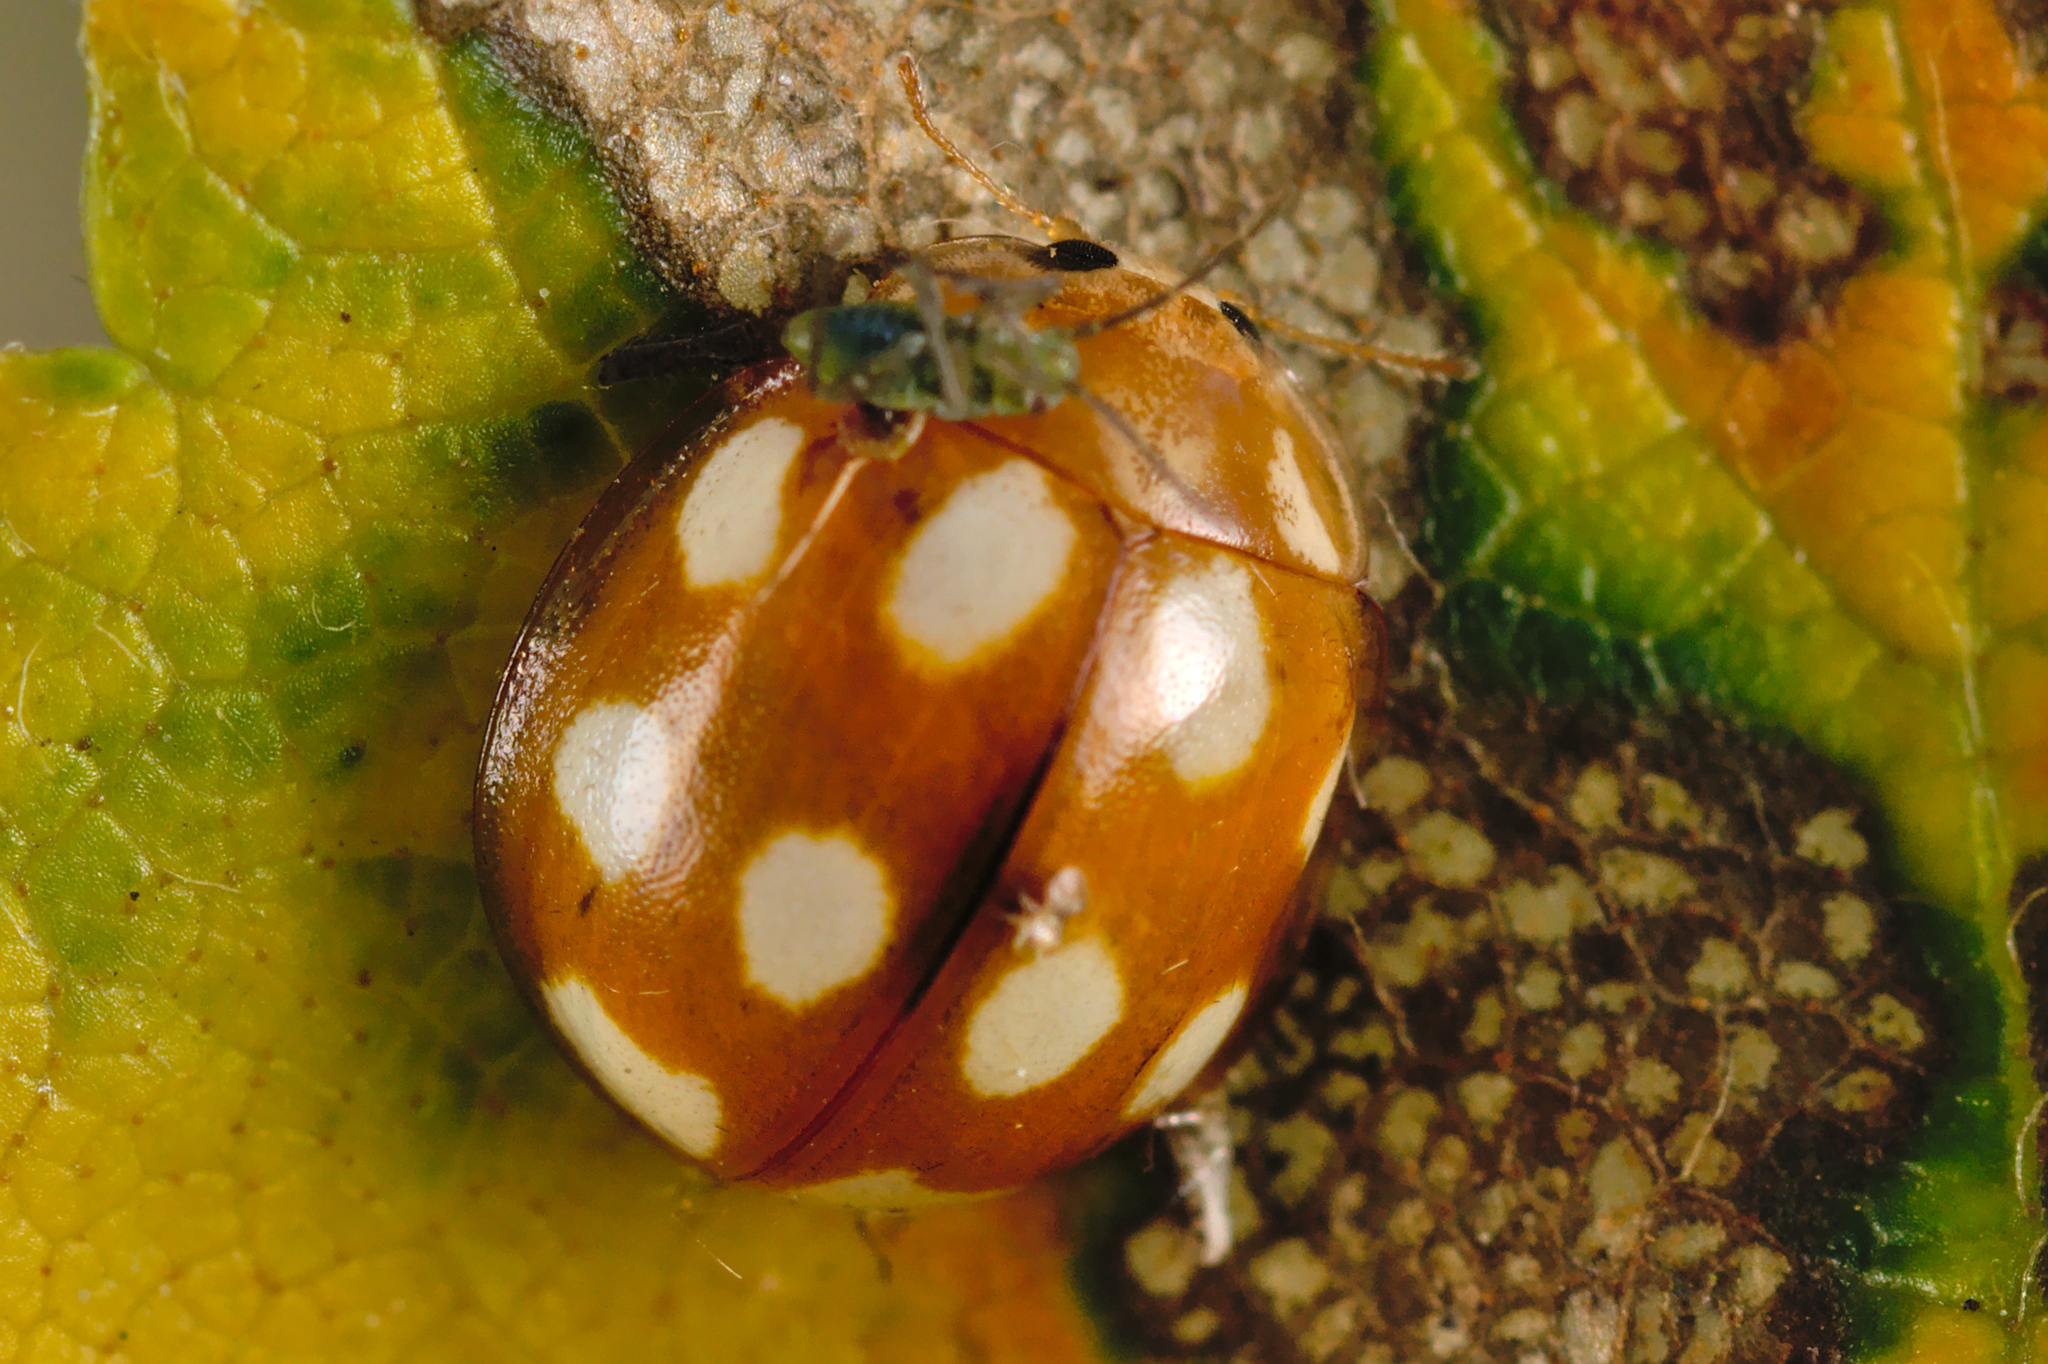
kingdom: Animalia
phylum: Arthropoda
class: Insecta
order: Coleoptera
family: Coccinellidae
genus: Calvia
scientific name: Calvia decemguttata
